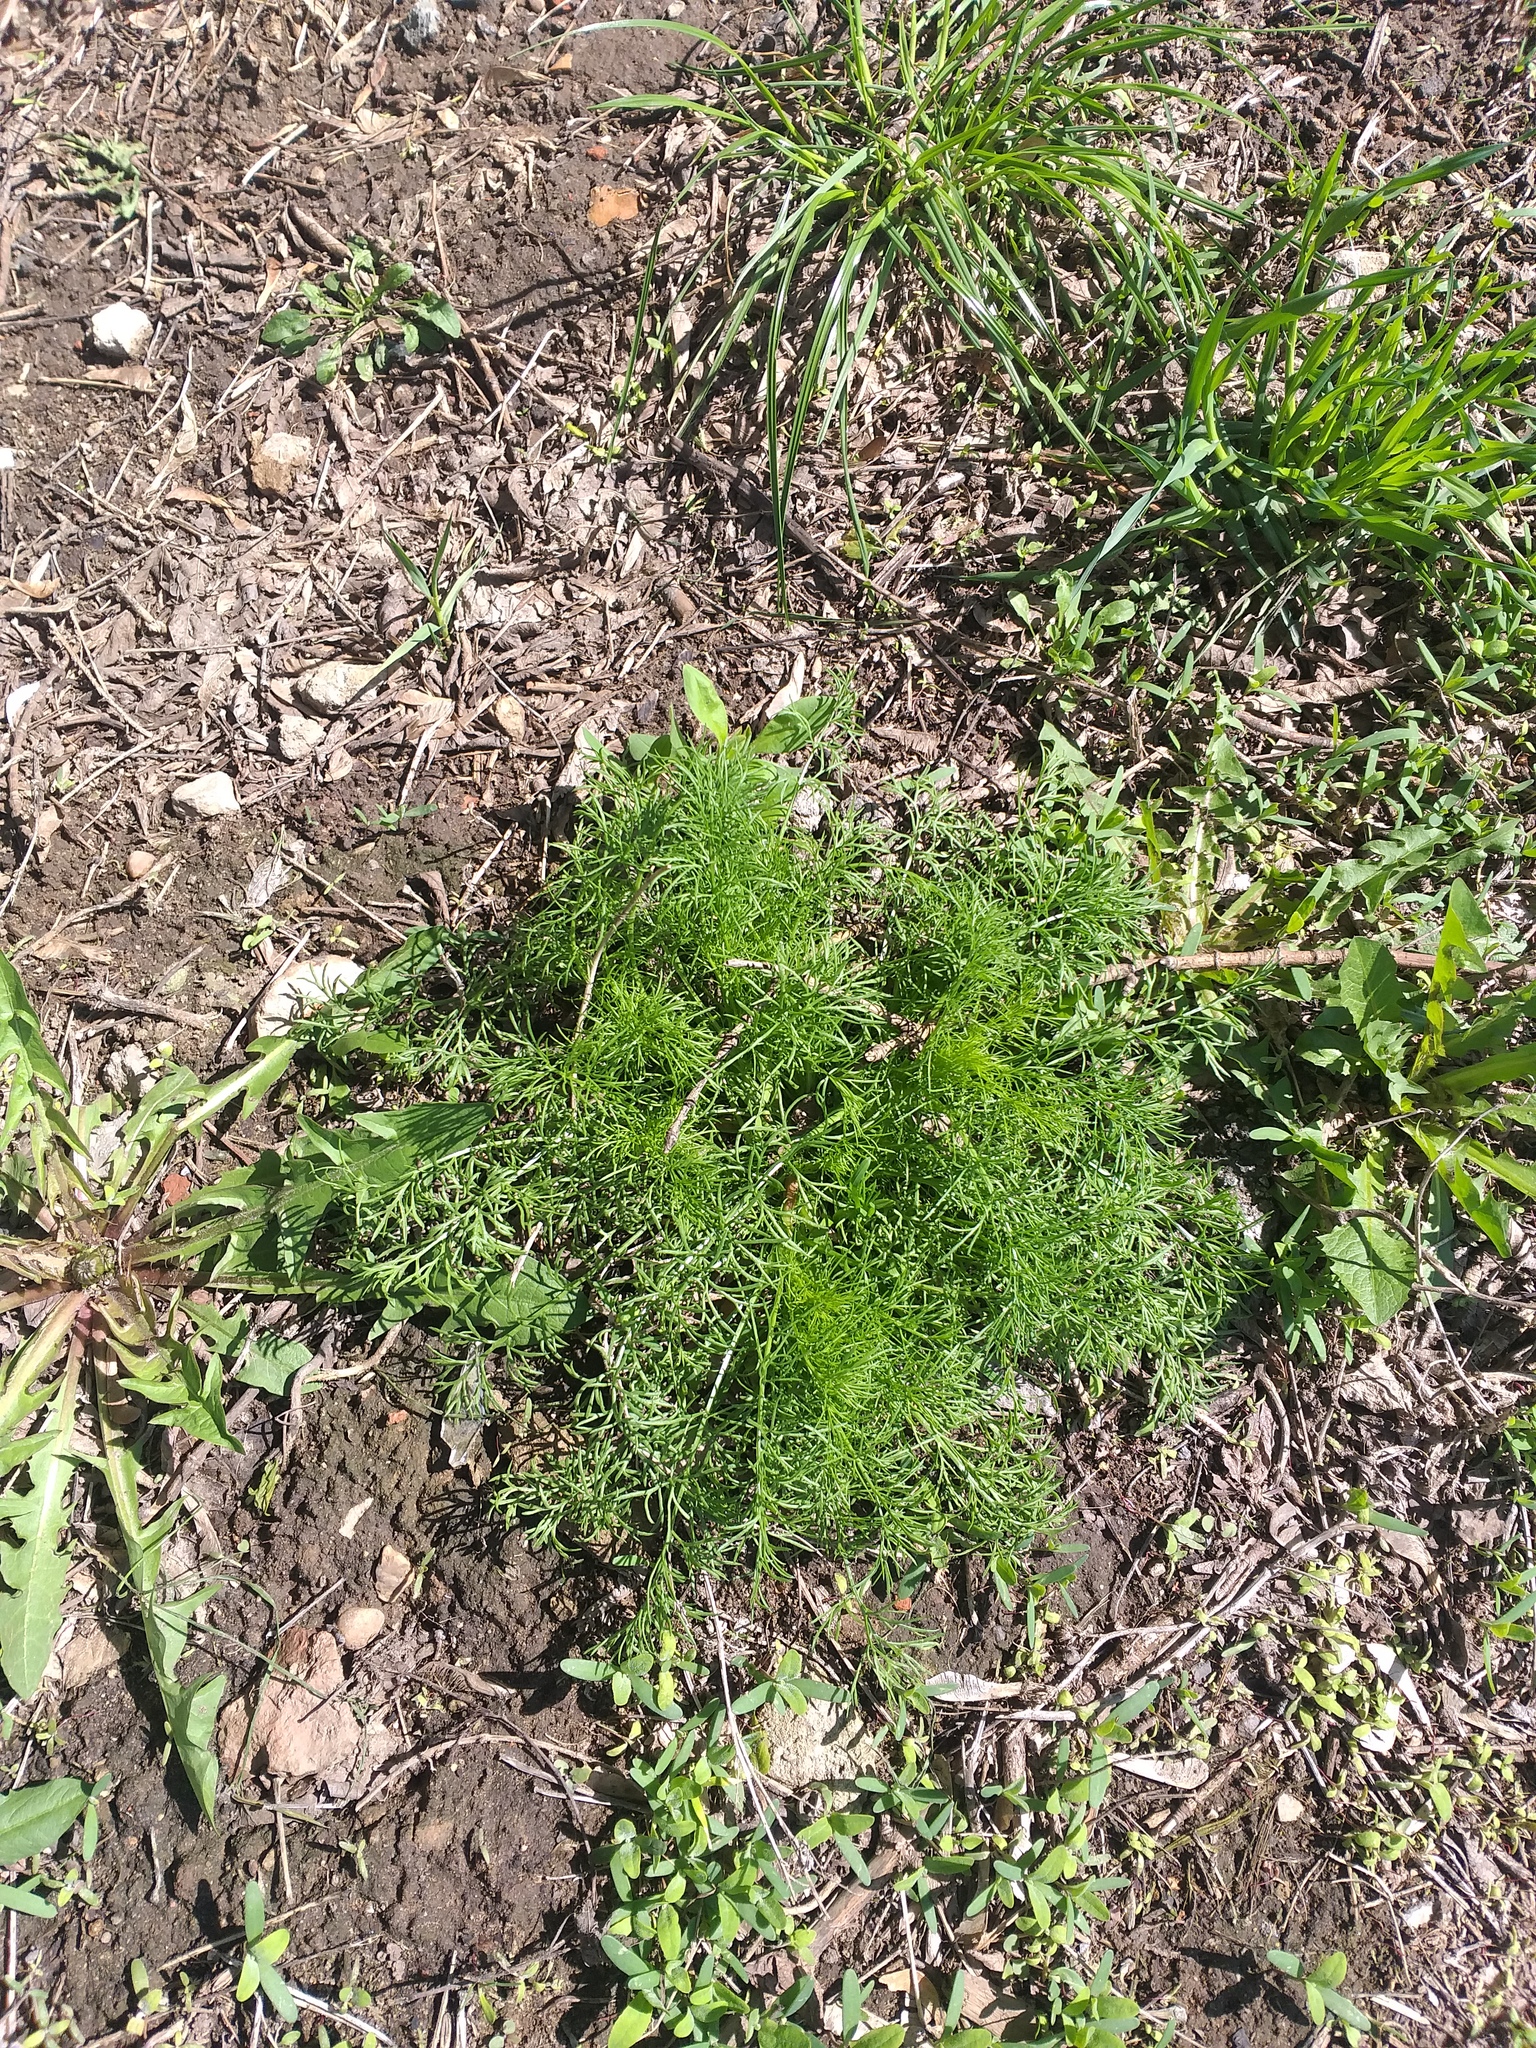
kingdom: Plantae
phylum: Tracheophyta
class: Magnoliopsida
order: Asterales
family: Asteraceae
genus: Tripleurospermum
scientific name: Tripleurospermum inodorum
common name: Scentless mayweed
